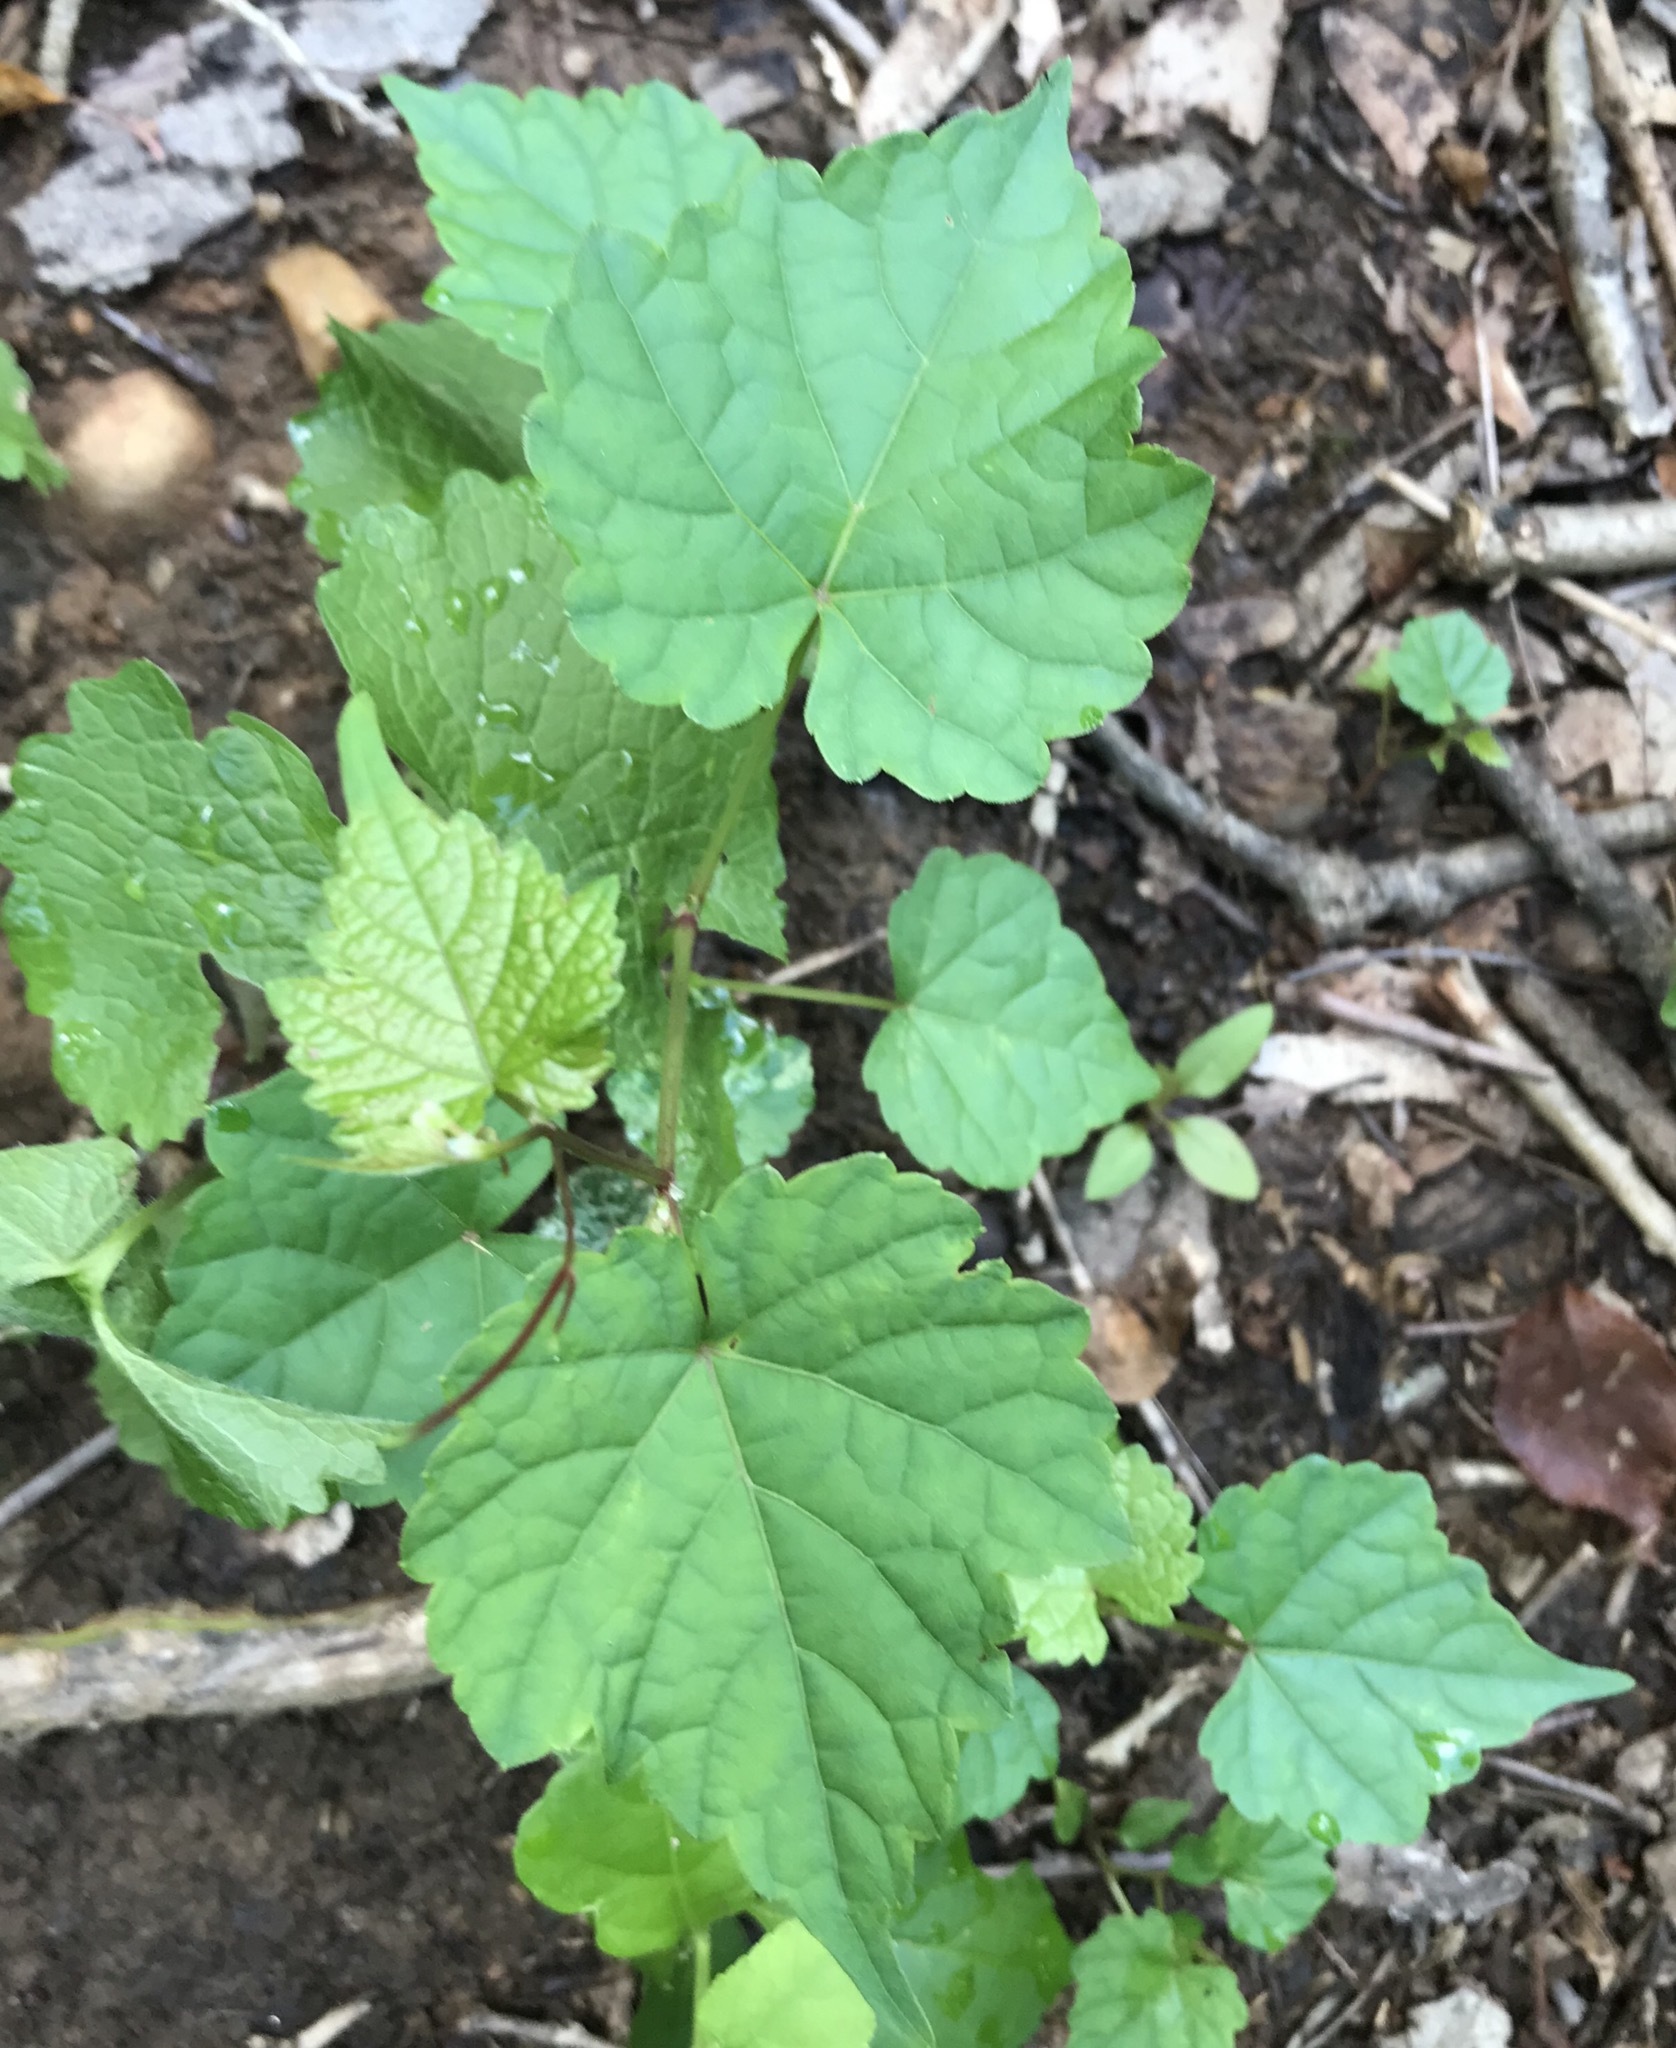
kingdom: Plantae
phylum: Tracheophyta
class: Magnoliopsida
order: Vitales
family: Vitaceae
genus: Ampelopsis
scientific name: Ampelopsis glandulosa
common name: Amur peppervine
